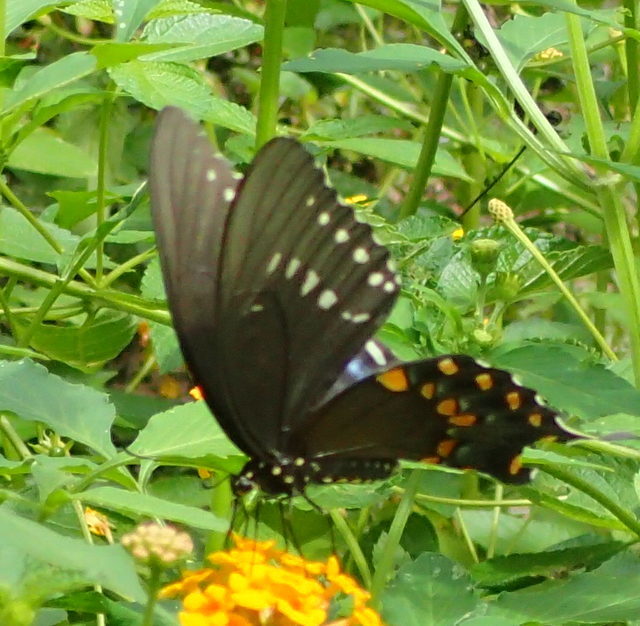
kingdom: Animalia
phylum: Arthropoda
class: Insecta
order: Lepidoptera
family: Papilionidae
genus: Papilio
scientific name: Papilio troilus
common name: Spicebush swallowtail
